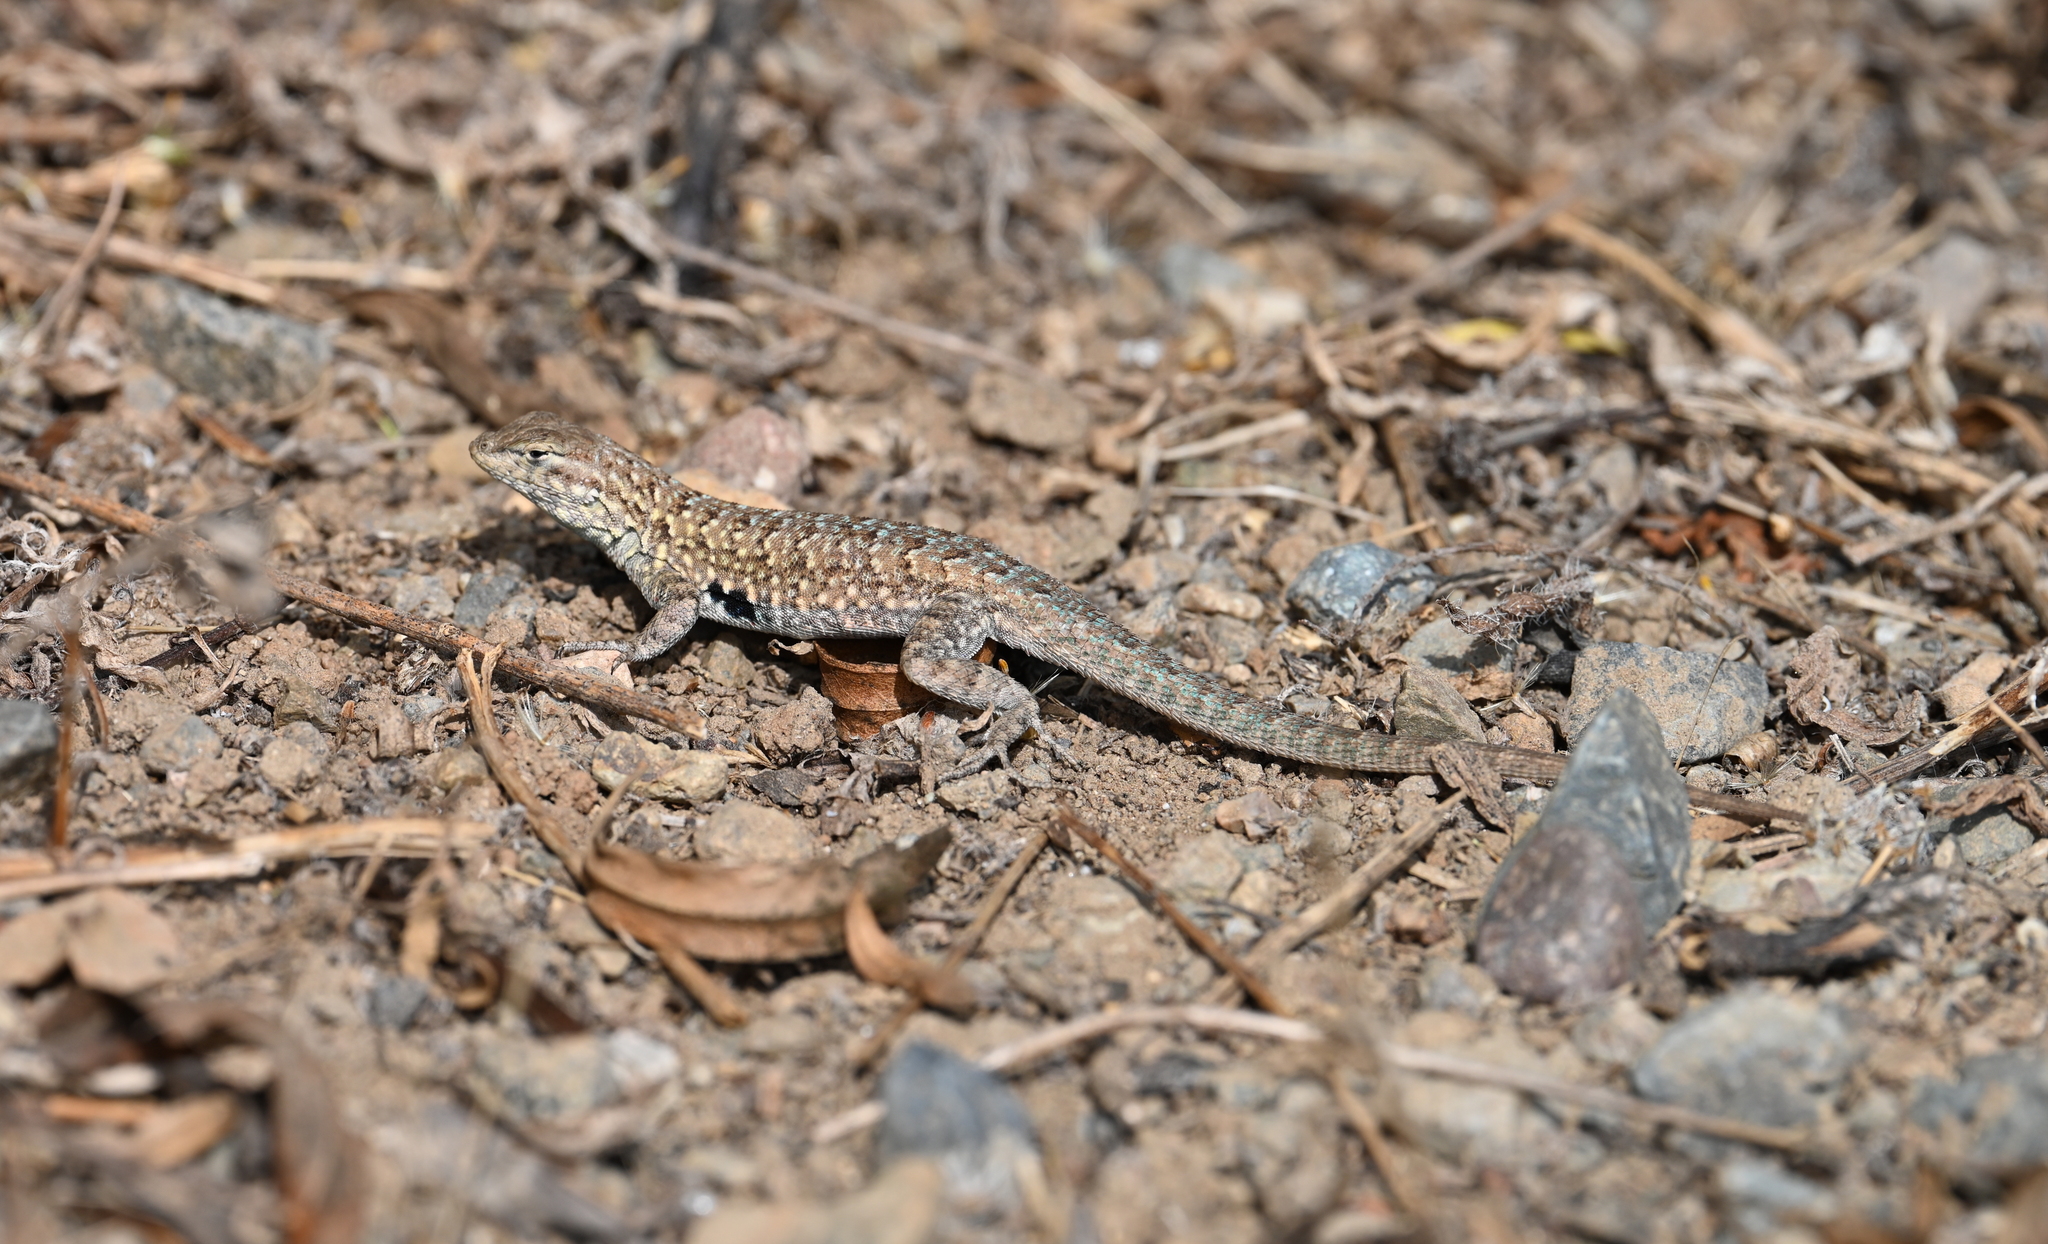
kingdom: Animalia
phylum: Chordata
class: Squamata
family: Phrynosomatidae
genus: Uta
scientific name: Uta stansburiana
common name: Side-blotched lizard
